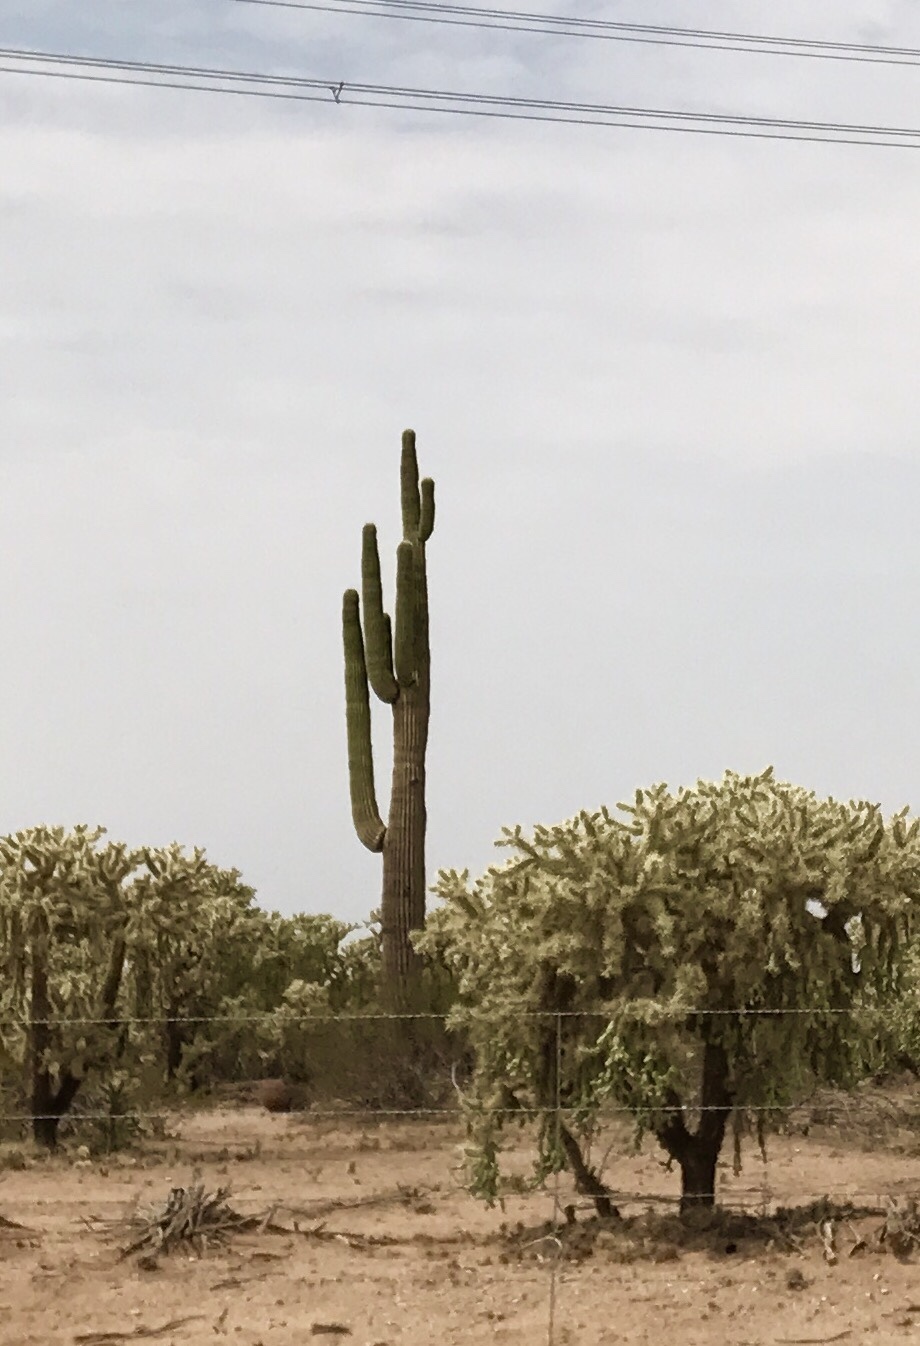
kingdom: Plantae
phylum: Tracheophyta
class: Magnoliopsida
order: Caryophyllales
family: Cactaceae
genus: Carnegiea
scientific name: Carnegiea gigantea
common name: Saguaro
